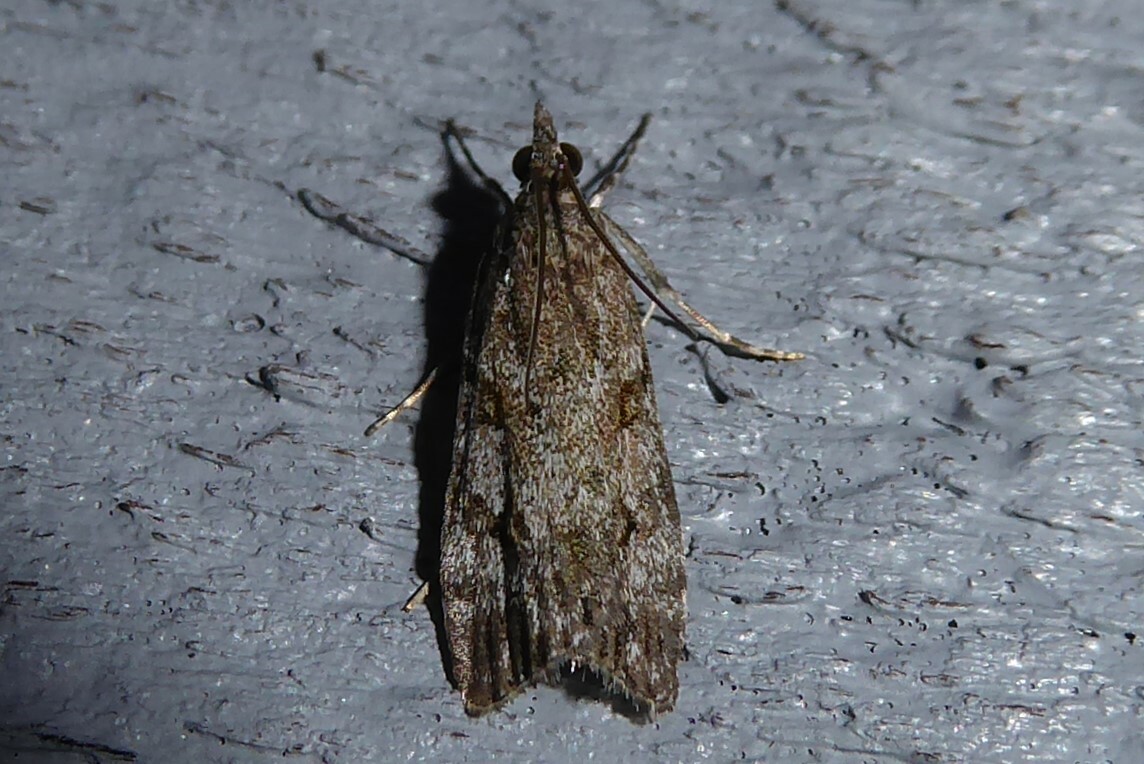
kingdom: Animalia
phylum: Arthropoda
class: Insecta
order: Lepidoptera
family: Crambidae
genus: Eudonia
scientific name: Eudonia cymatias
